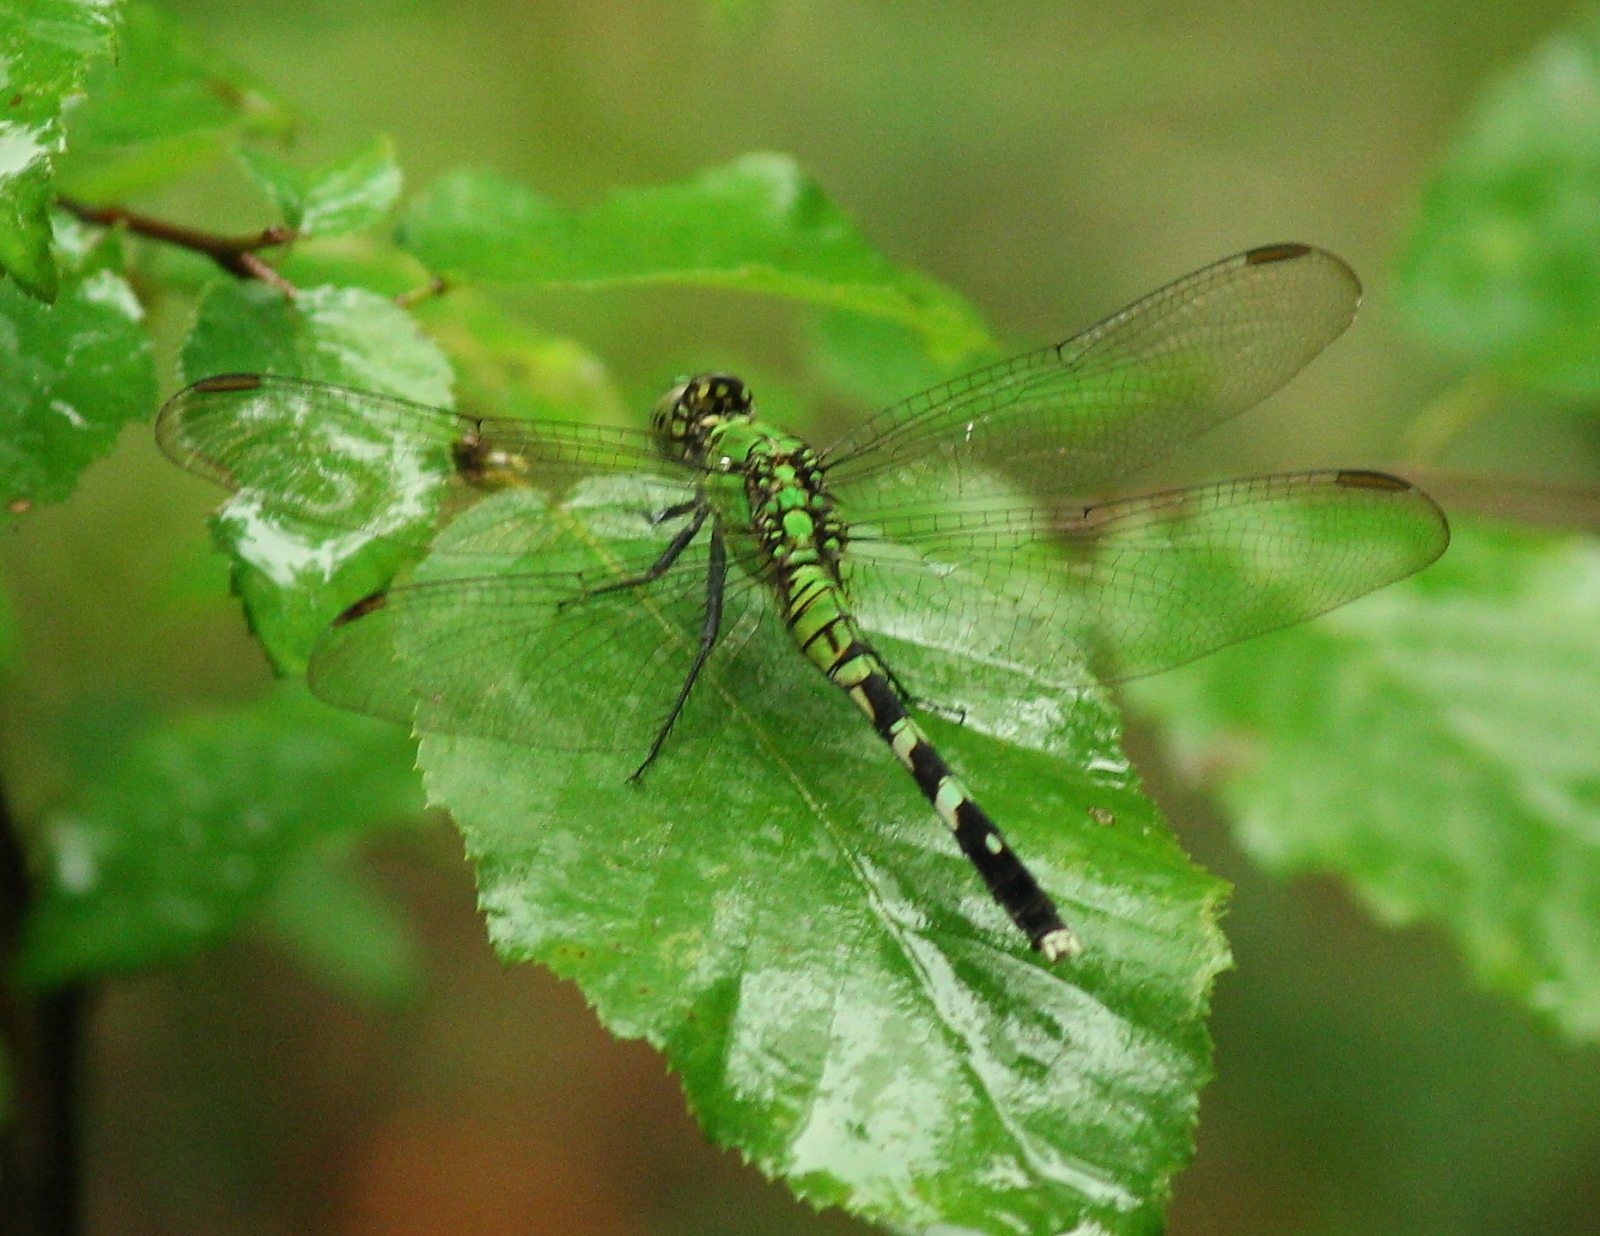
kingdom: Animalia
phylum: Arthropoda
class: Insecta
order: Odonata
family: Libellulidae
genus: Erythemis
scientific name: Erythemis simplicicollis
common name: Eastern pondhawk
